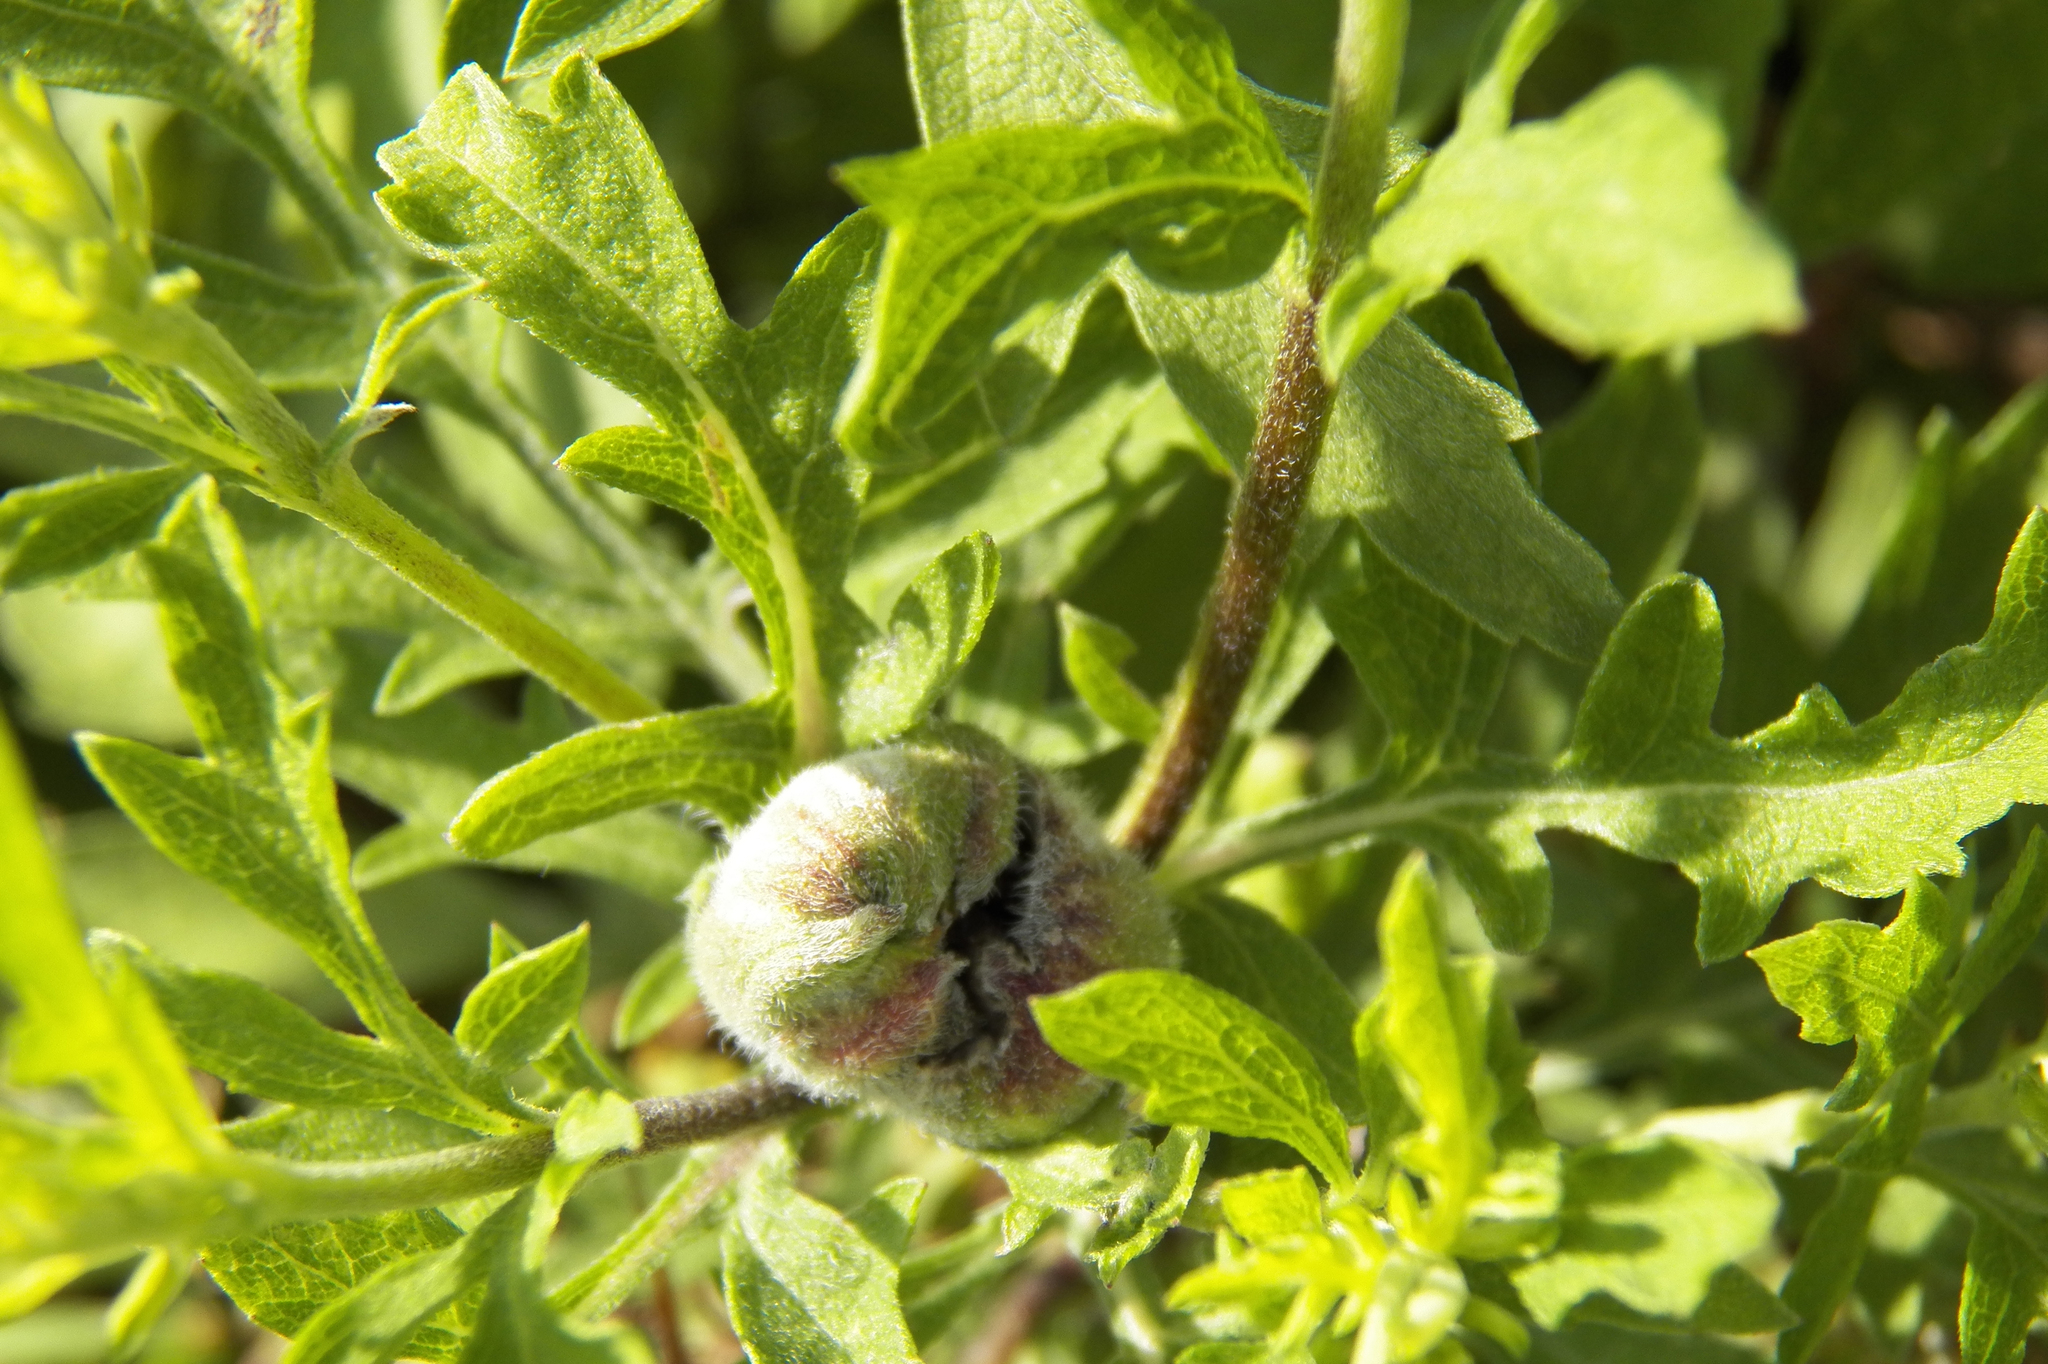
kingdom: Plantae
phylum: Tracheophyta
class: Magnoliopsida
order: Asterales
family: Asteraceae
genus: Ambrosia
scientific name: Ambrosia psilostachya
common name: Perennial ragweed
